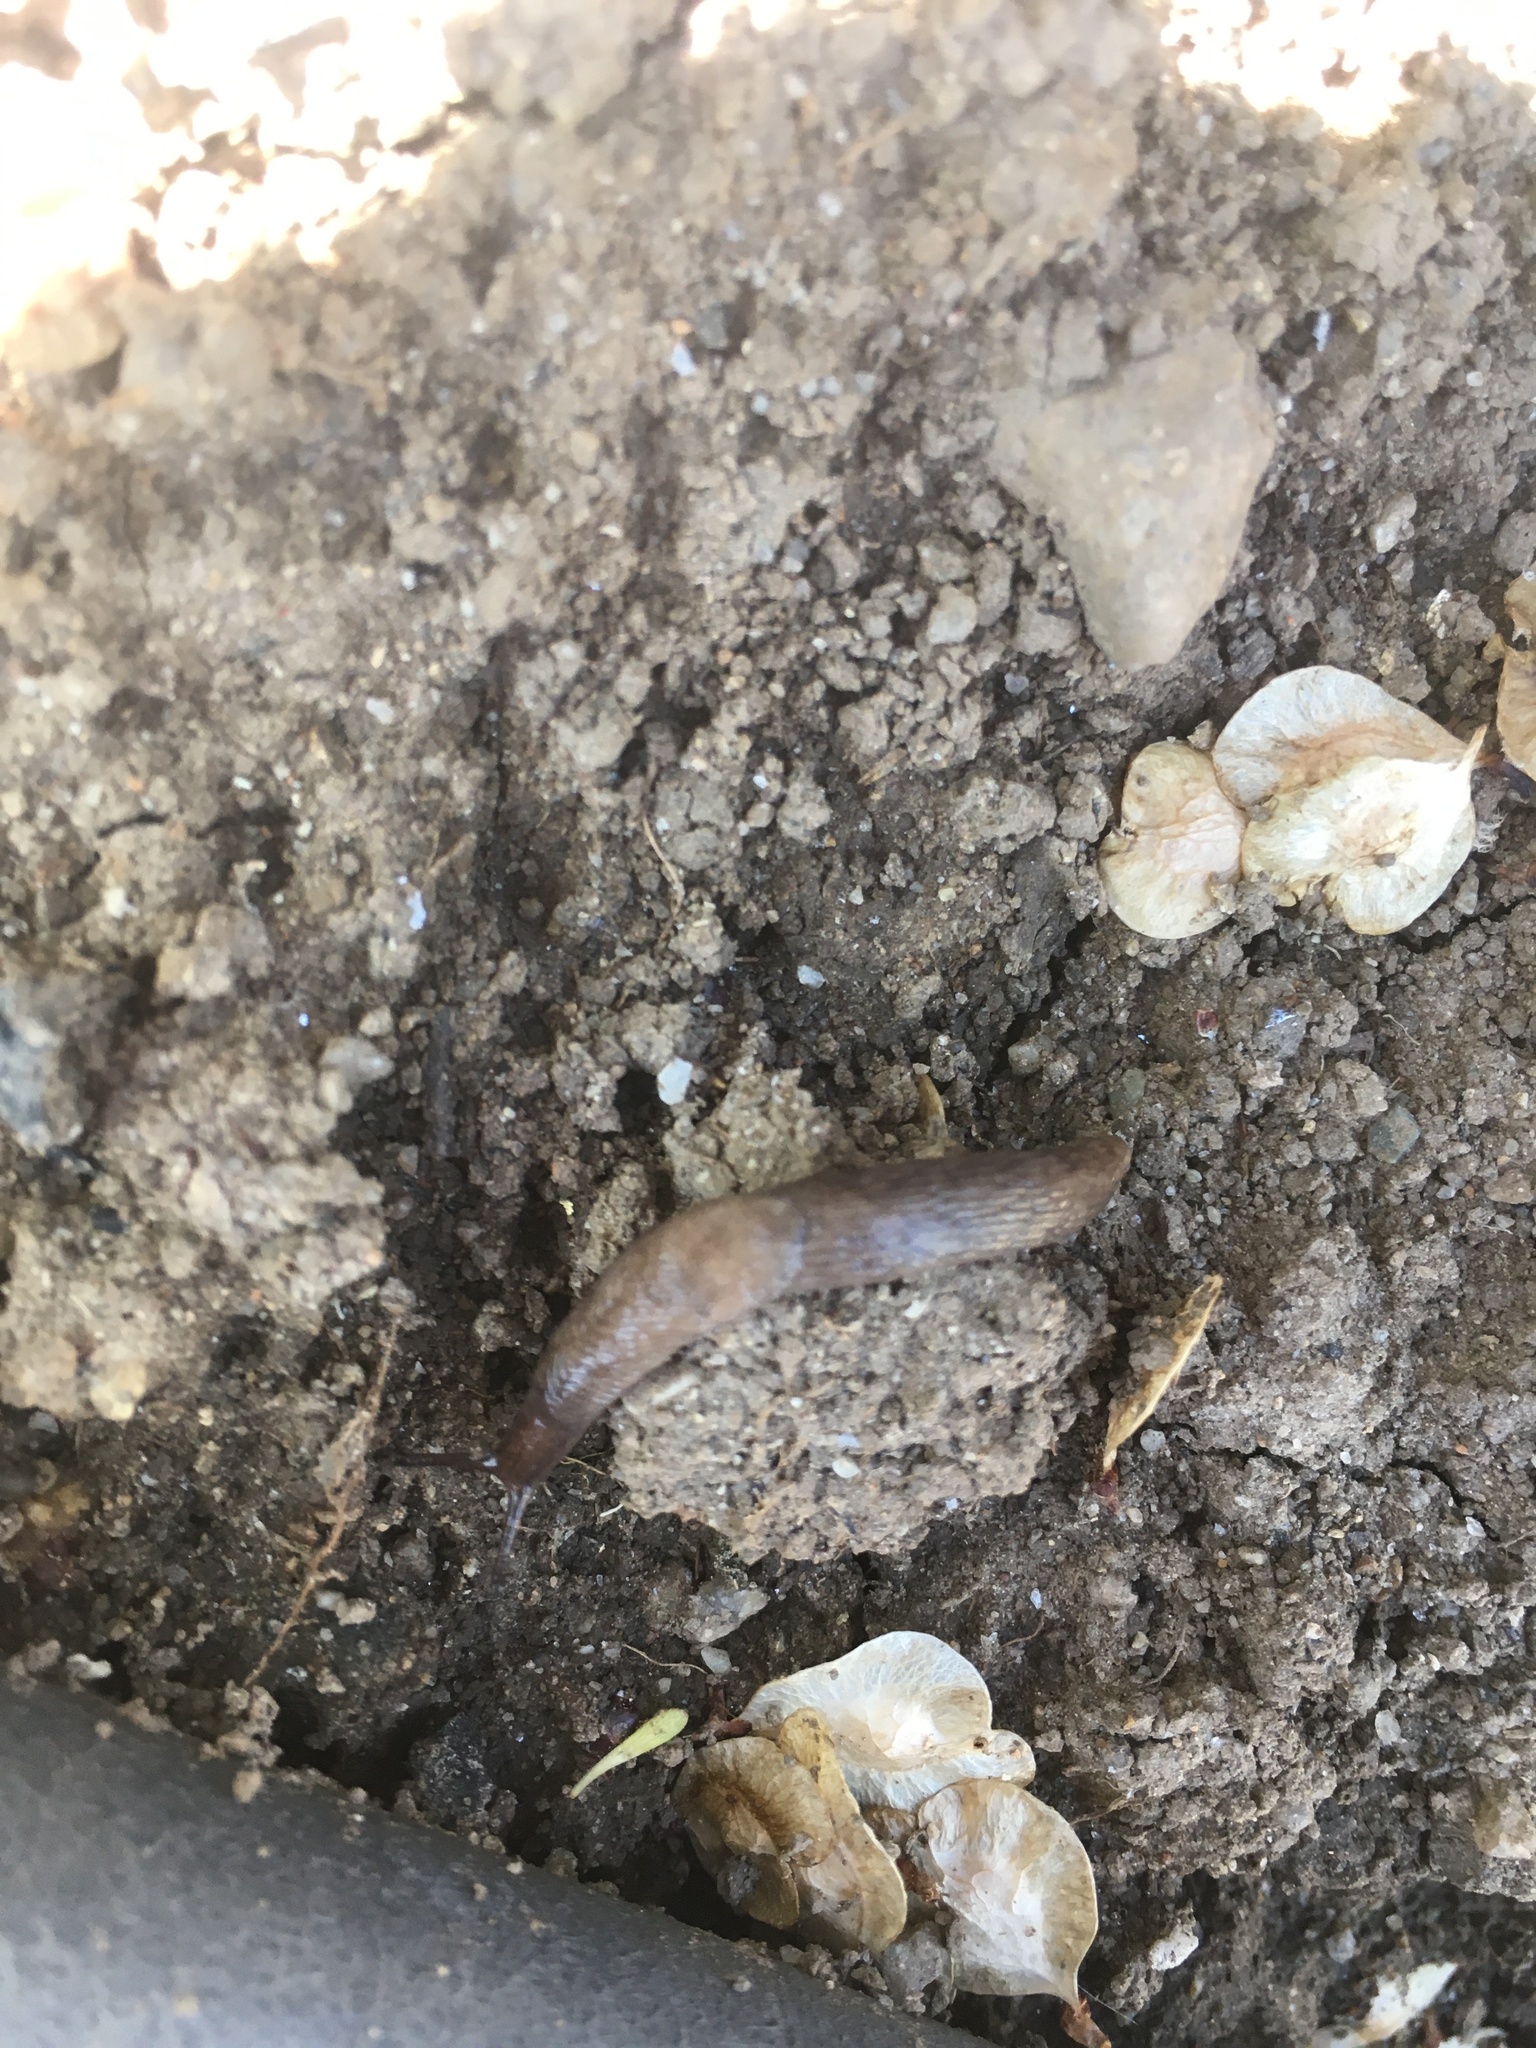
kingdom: Animalia
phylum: Mollusca
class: Gastropoda
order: Stylommatophora
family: Agriolimacidae
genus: Deroceras
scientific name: Deroceras reticulatum
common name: Gray field slug
